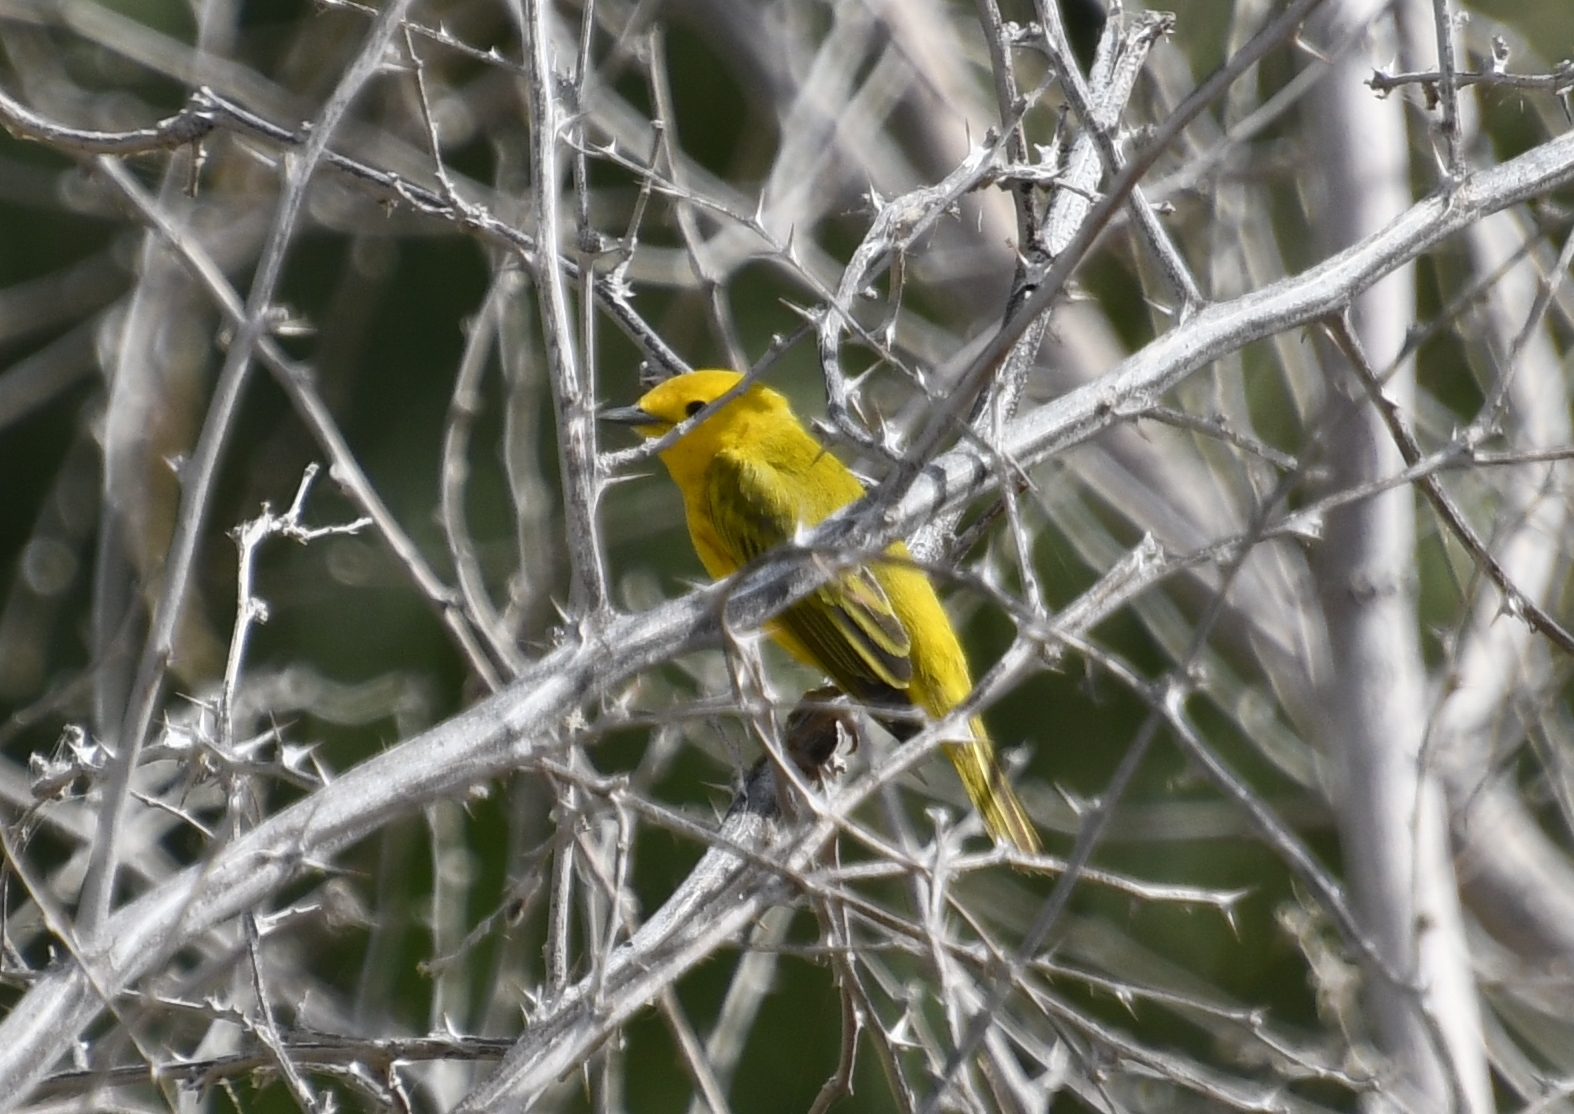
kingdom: Animalia
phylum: Chordata
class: Aves
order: Passeriformes
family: Parulidae
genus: Setophaga
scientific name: Setophaga petechia
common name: Yellow warbler
